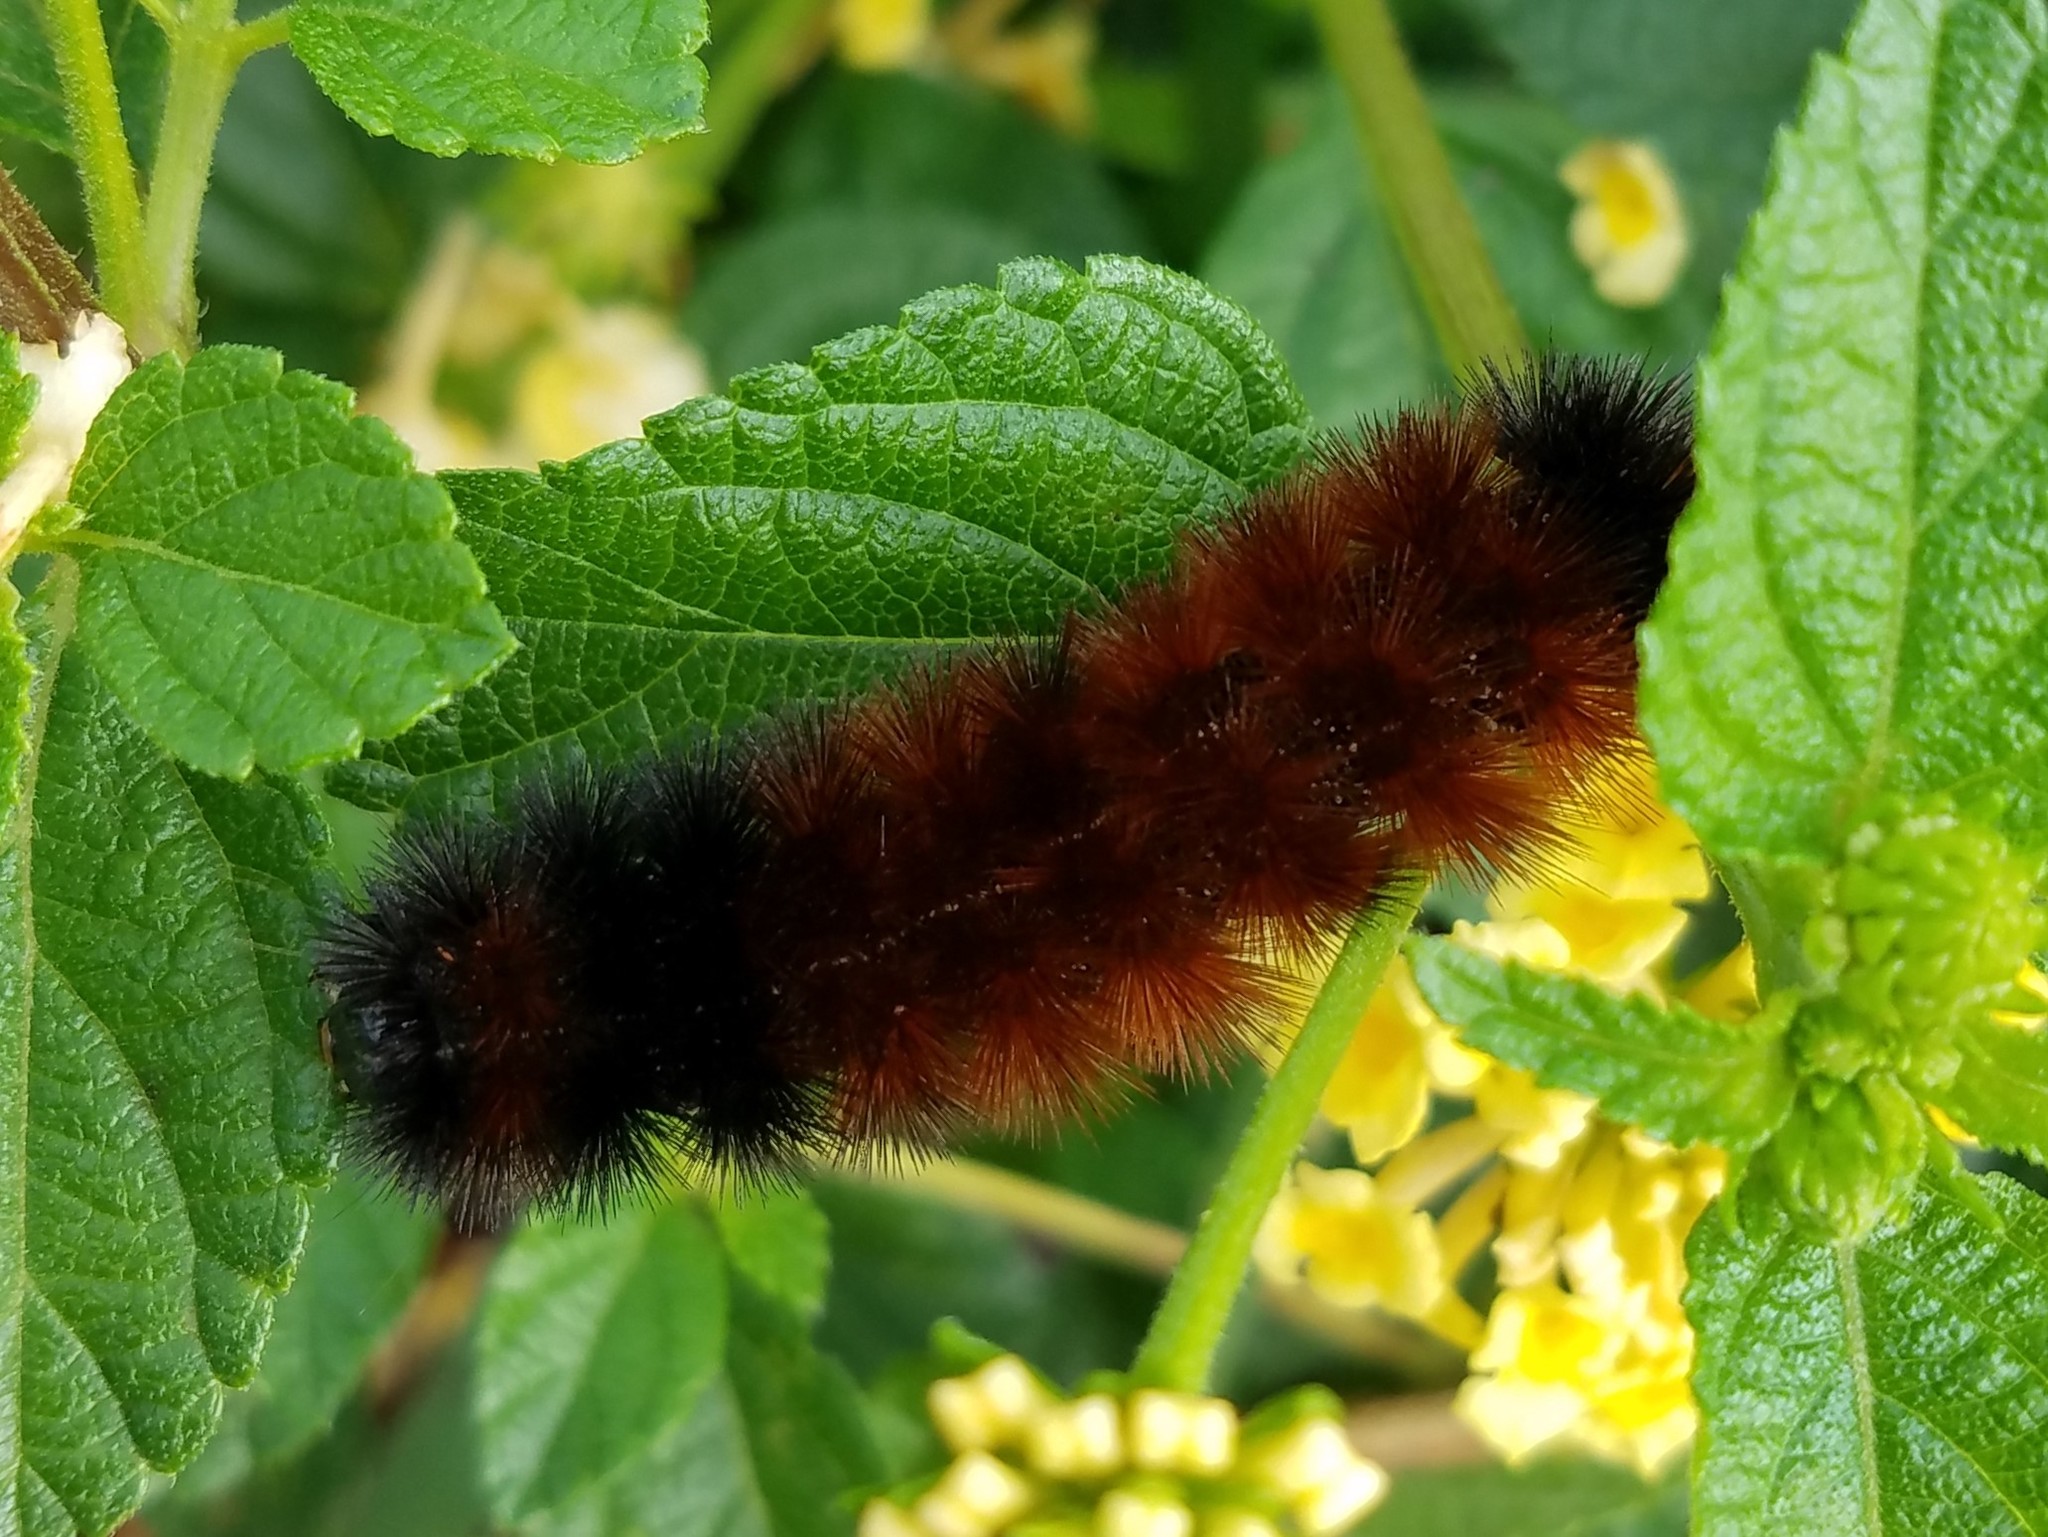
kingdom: Animalia
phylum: Arthropoda
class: Insecta
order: Lepidoptera
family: Erebidae
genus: Pyrrharctia
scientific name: Pyrrharctia isabella
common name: Isabella tiger moth
